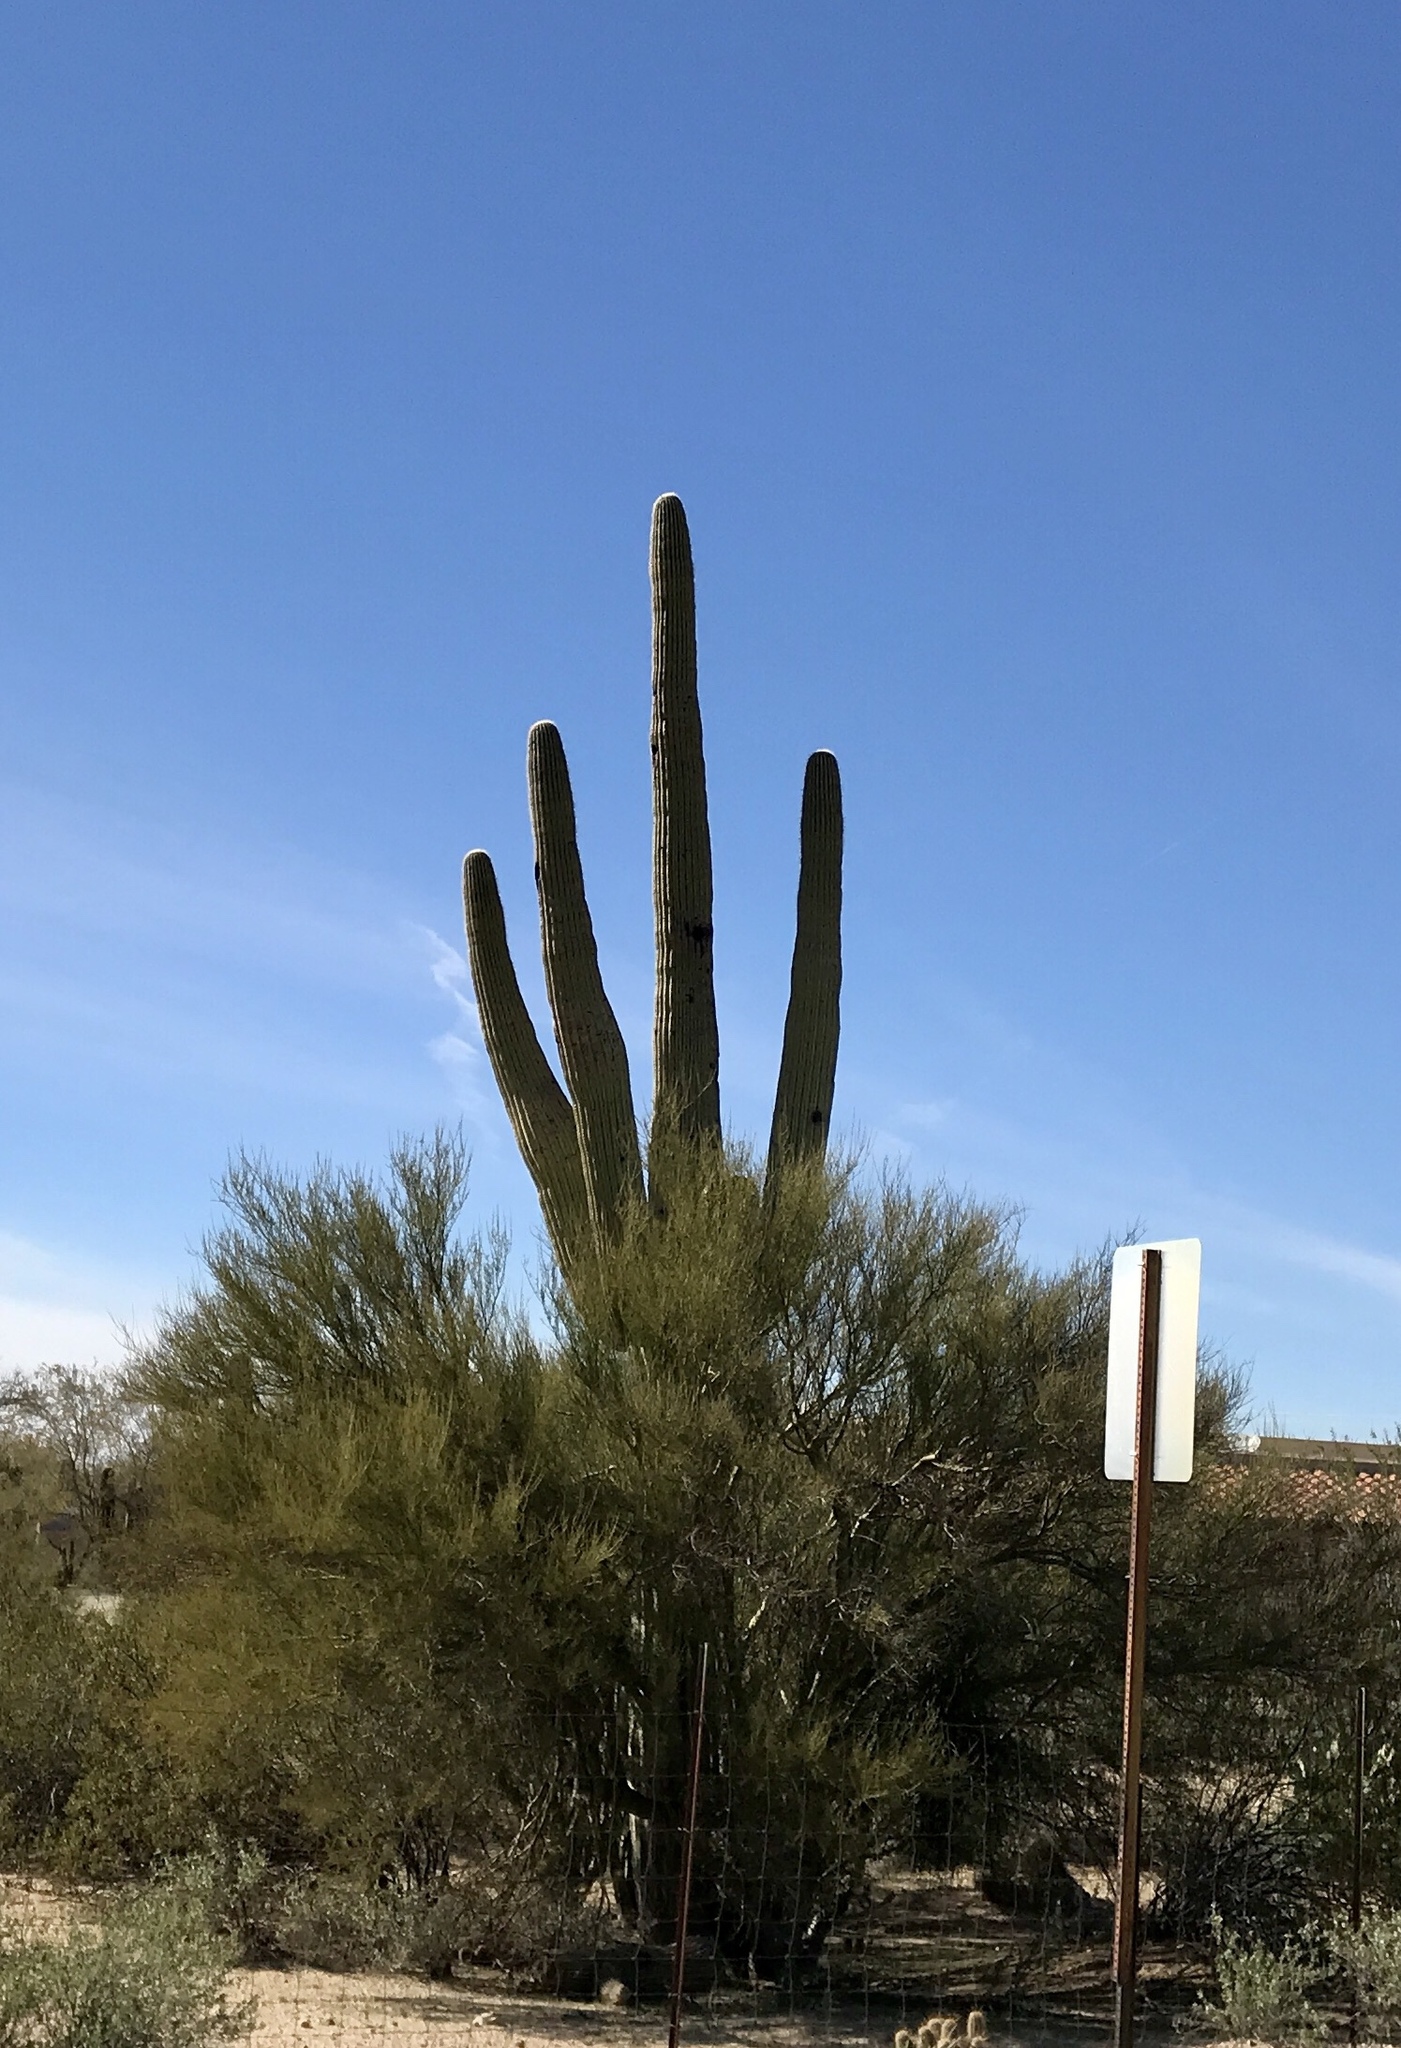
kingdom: Plantae
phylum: Tracheophyta
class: Magnoliopsida
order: Caryophyllales
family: Cactaceae
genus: Carnegiea
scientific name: Carnegiea gigantea
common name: Saguaro
